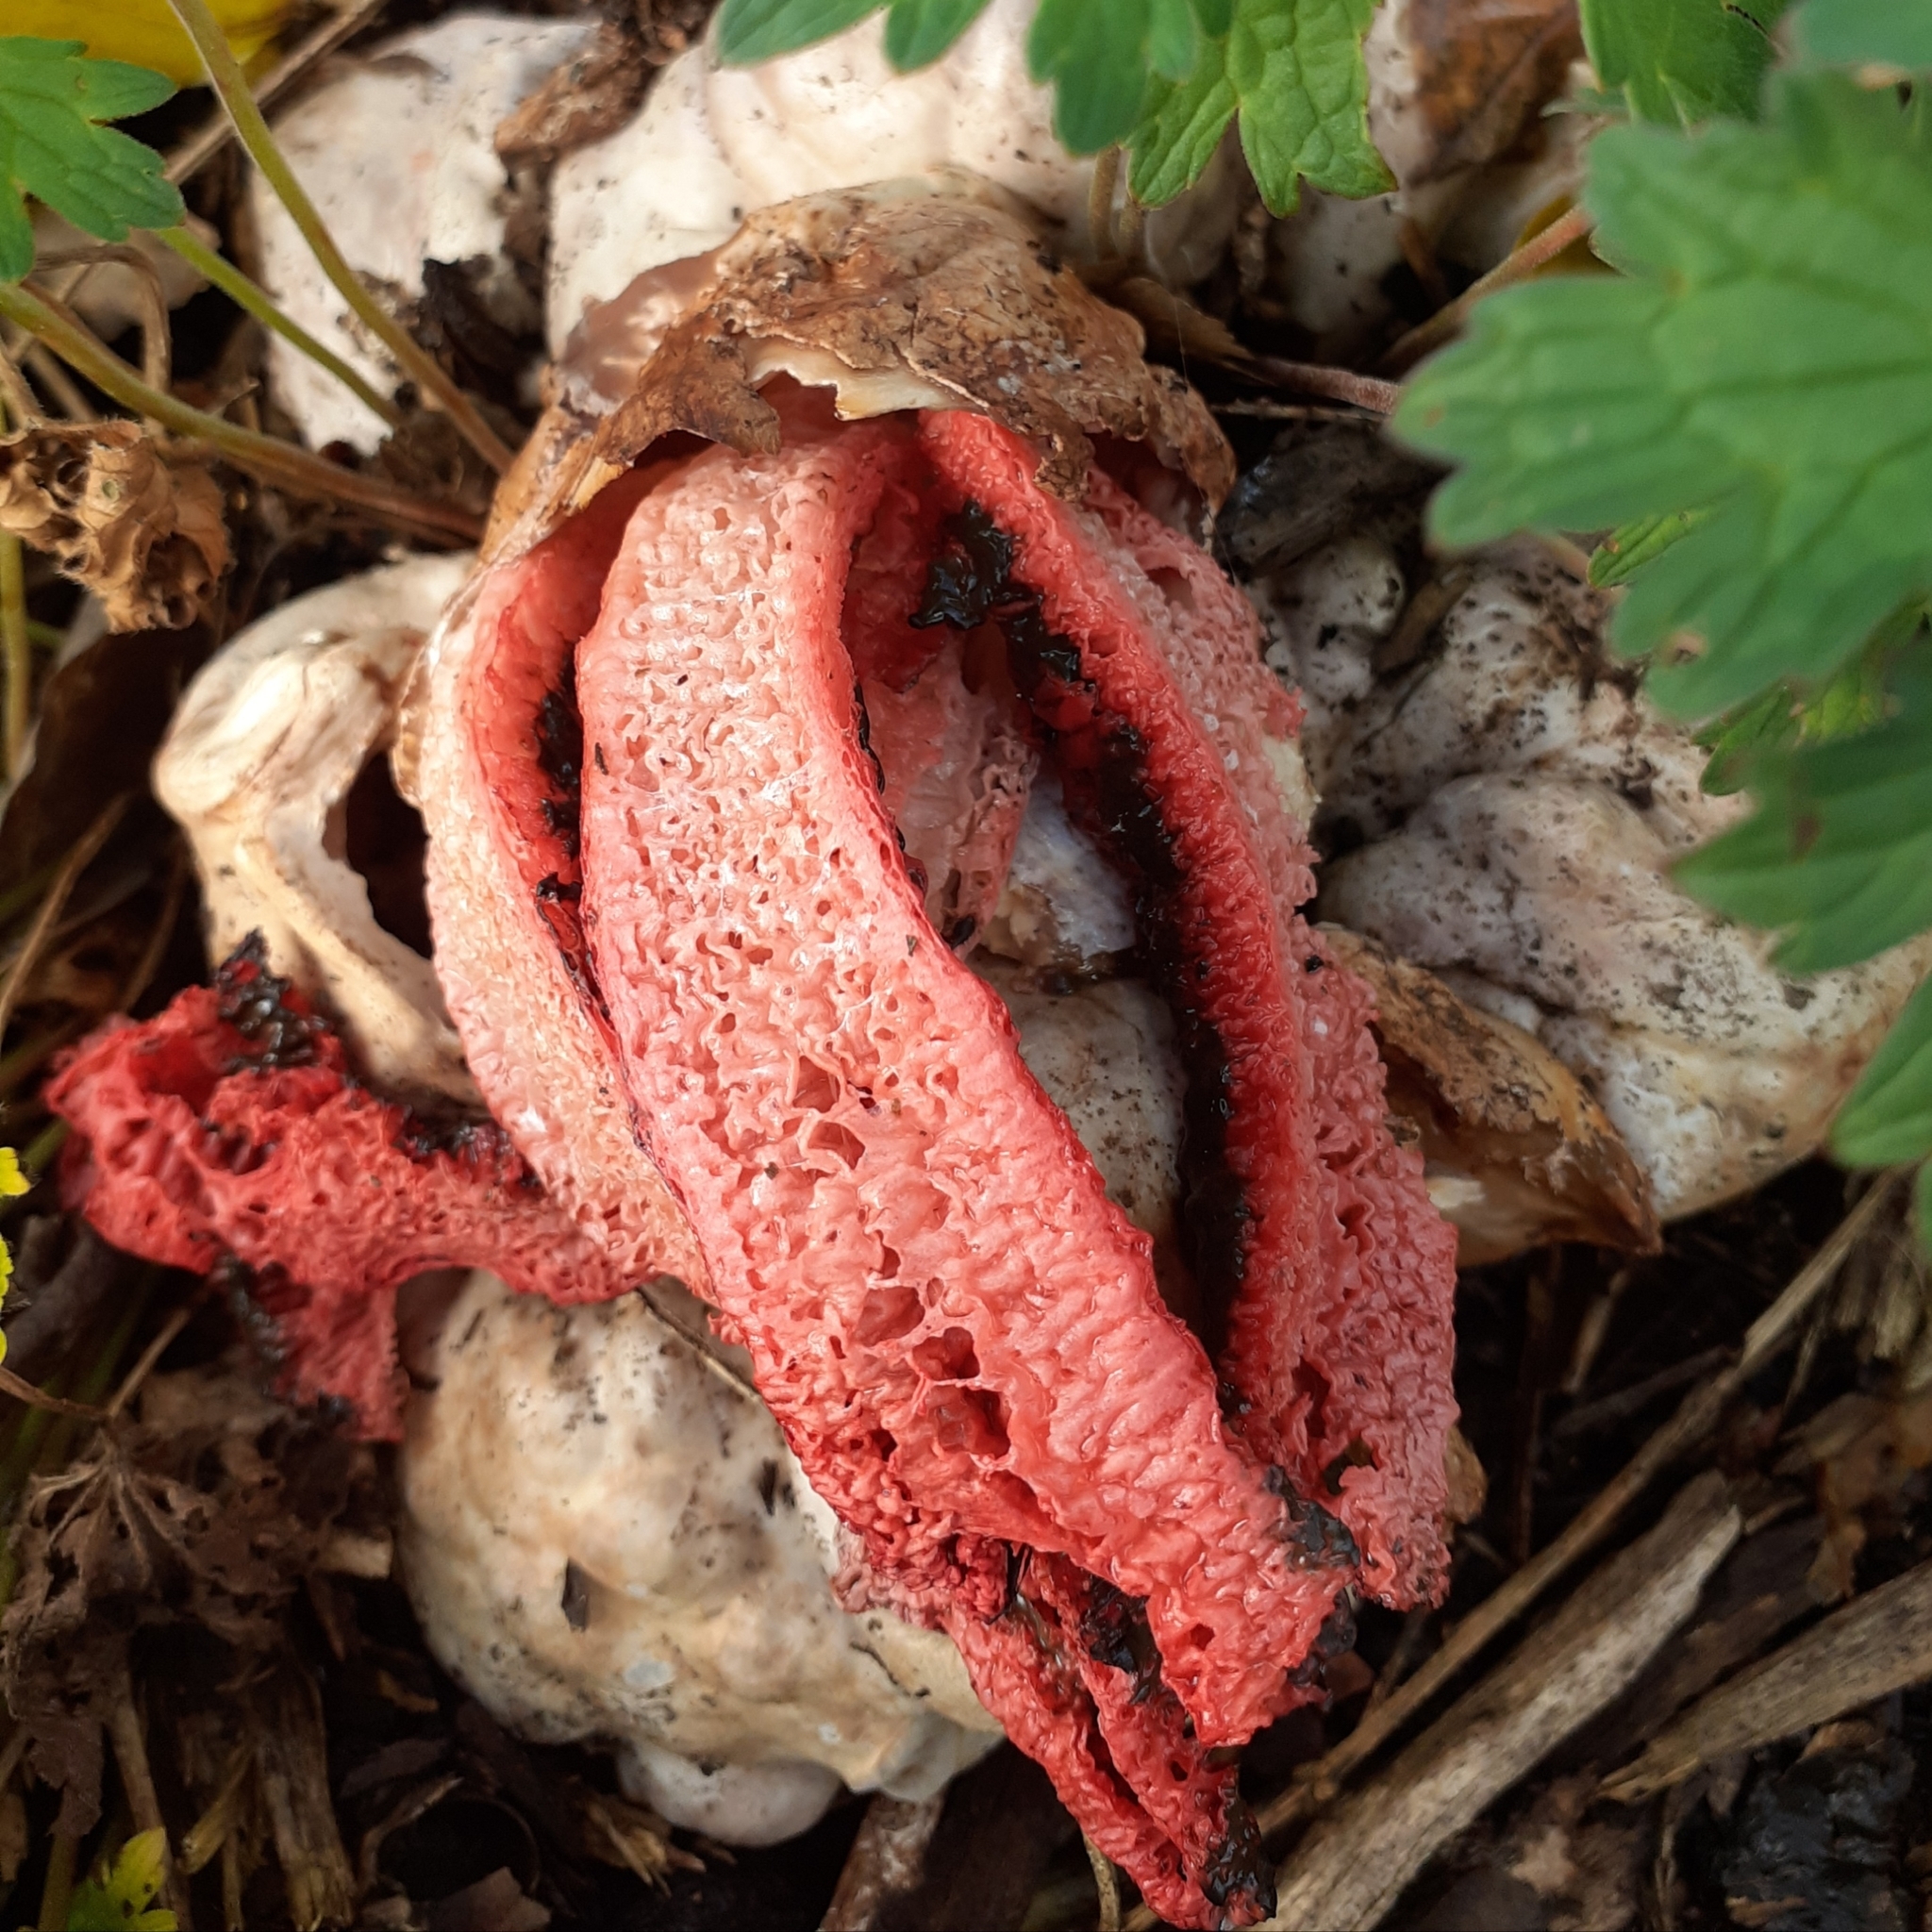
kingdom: Fungi
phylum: Basidiomycota
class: Agaricomycetes
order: Phallales
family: Phallaceae
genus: Clathrus
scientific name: Clathrus archeri
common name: Devil's fingers
